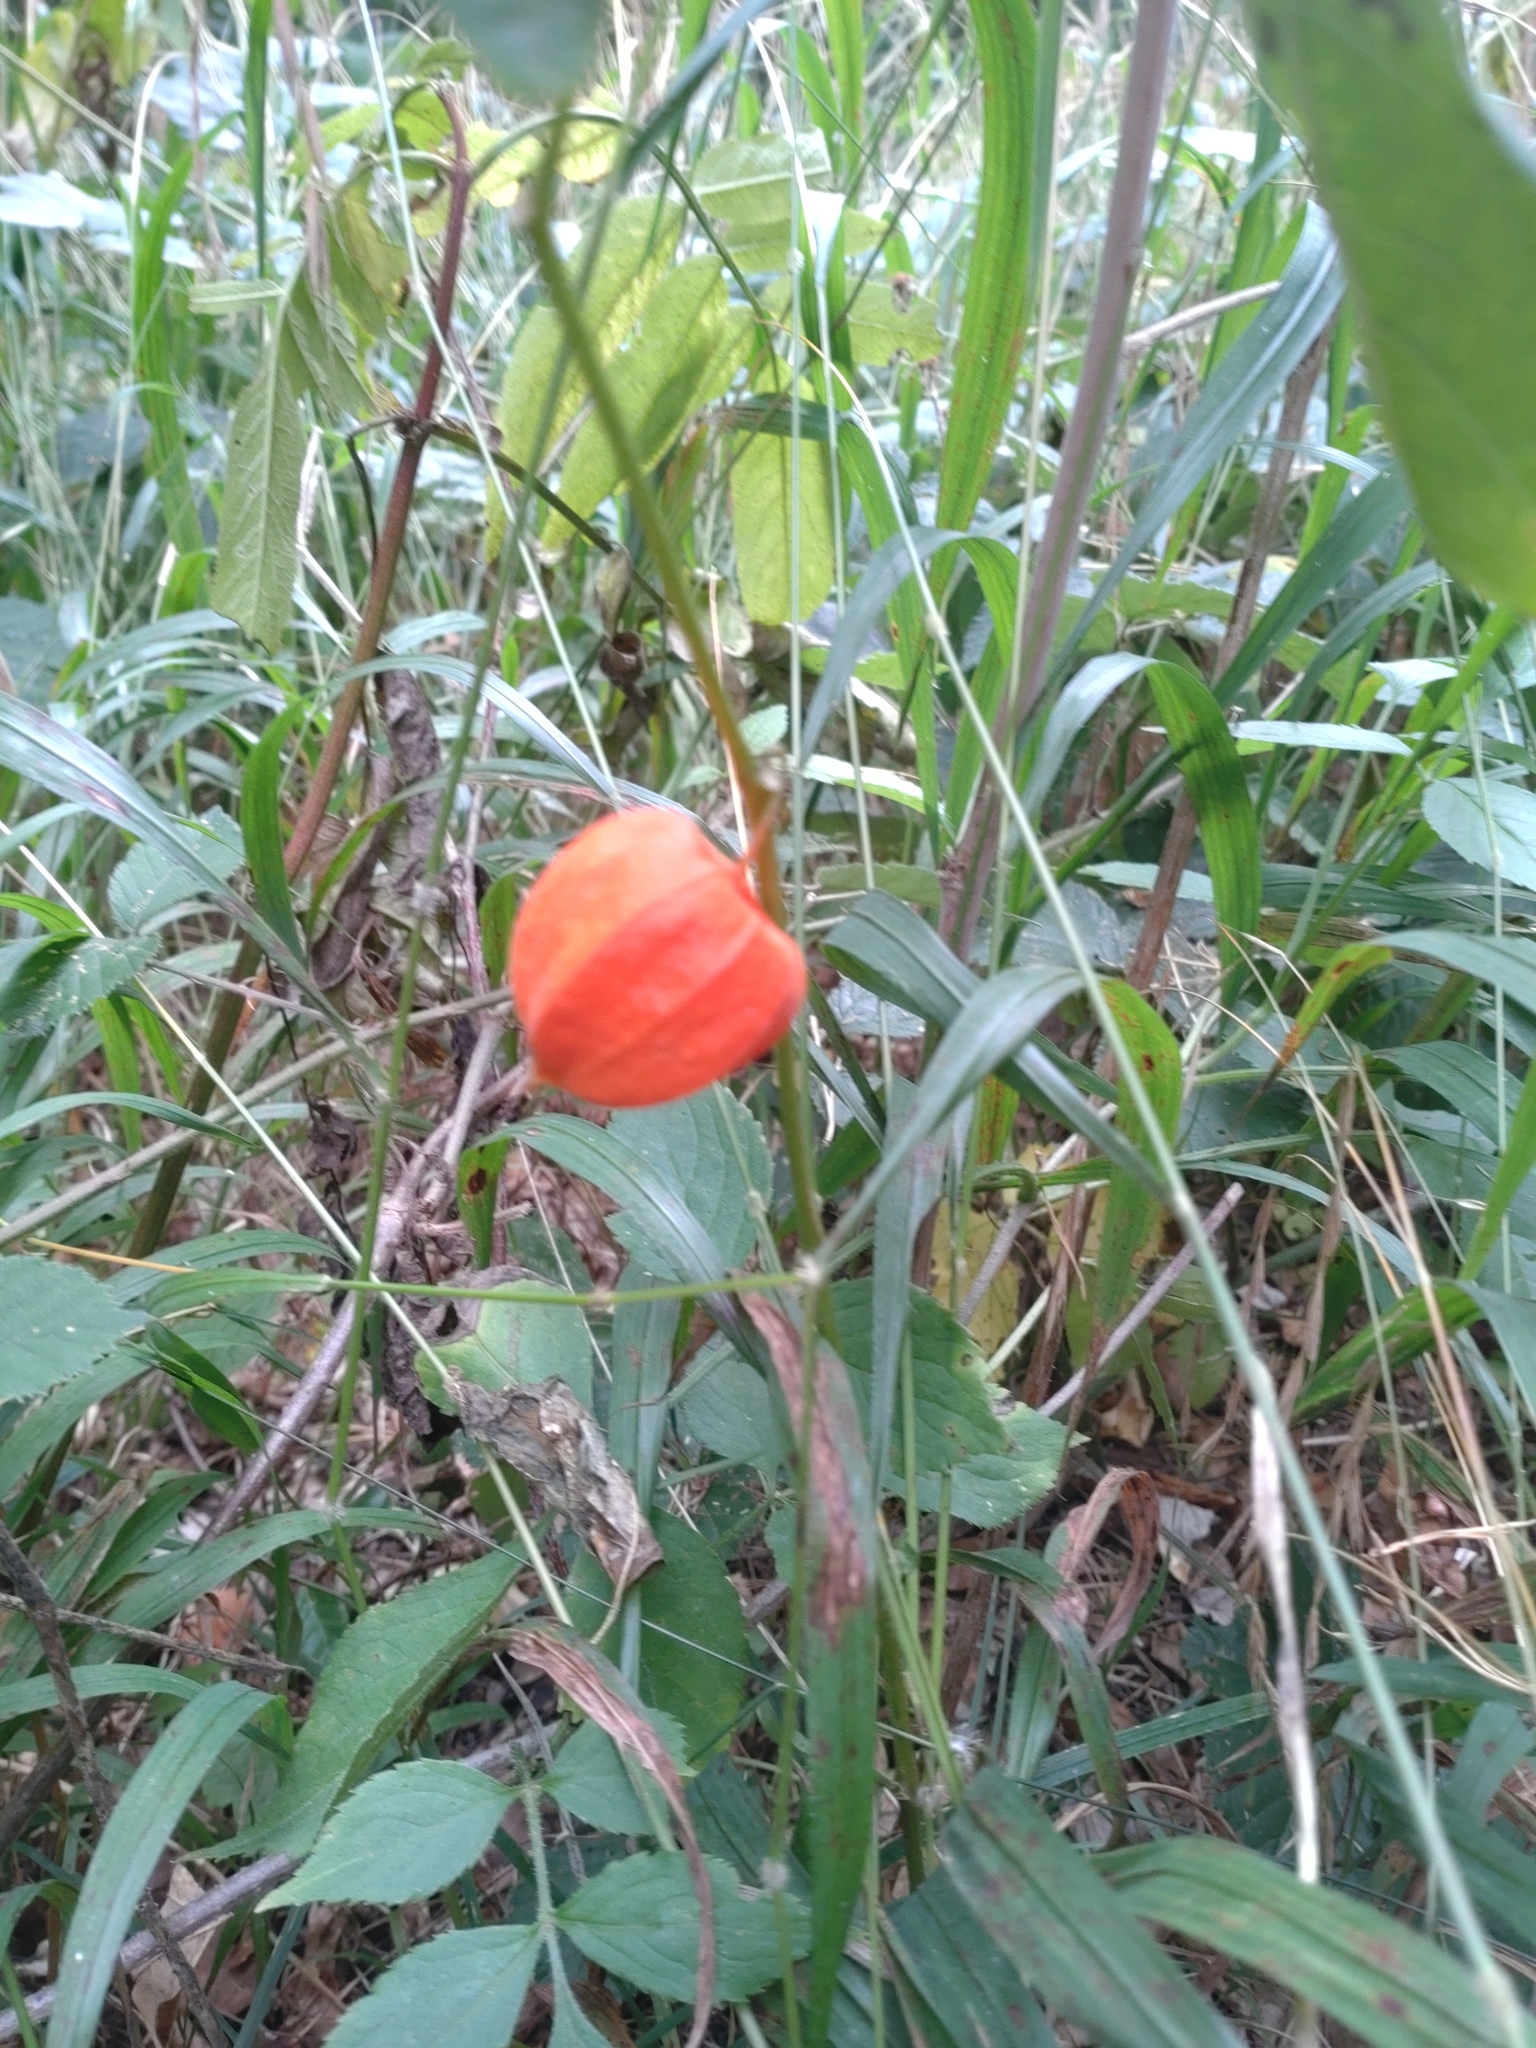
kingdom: Plantae
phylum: Tracheophyta
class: Magnoliopsida
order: Solanales
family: Solanaceae
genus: Alkekengi
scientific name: Alkekengi officinarum
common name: Japanese-lantern
